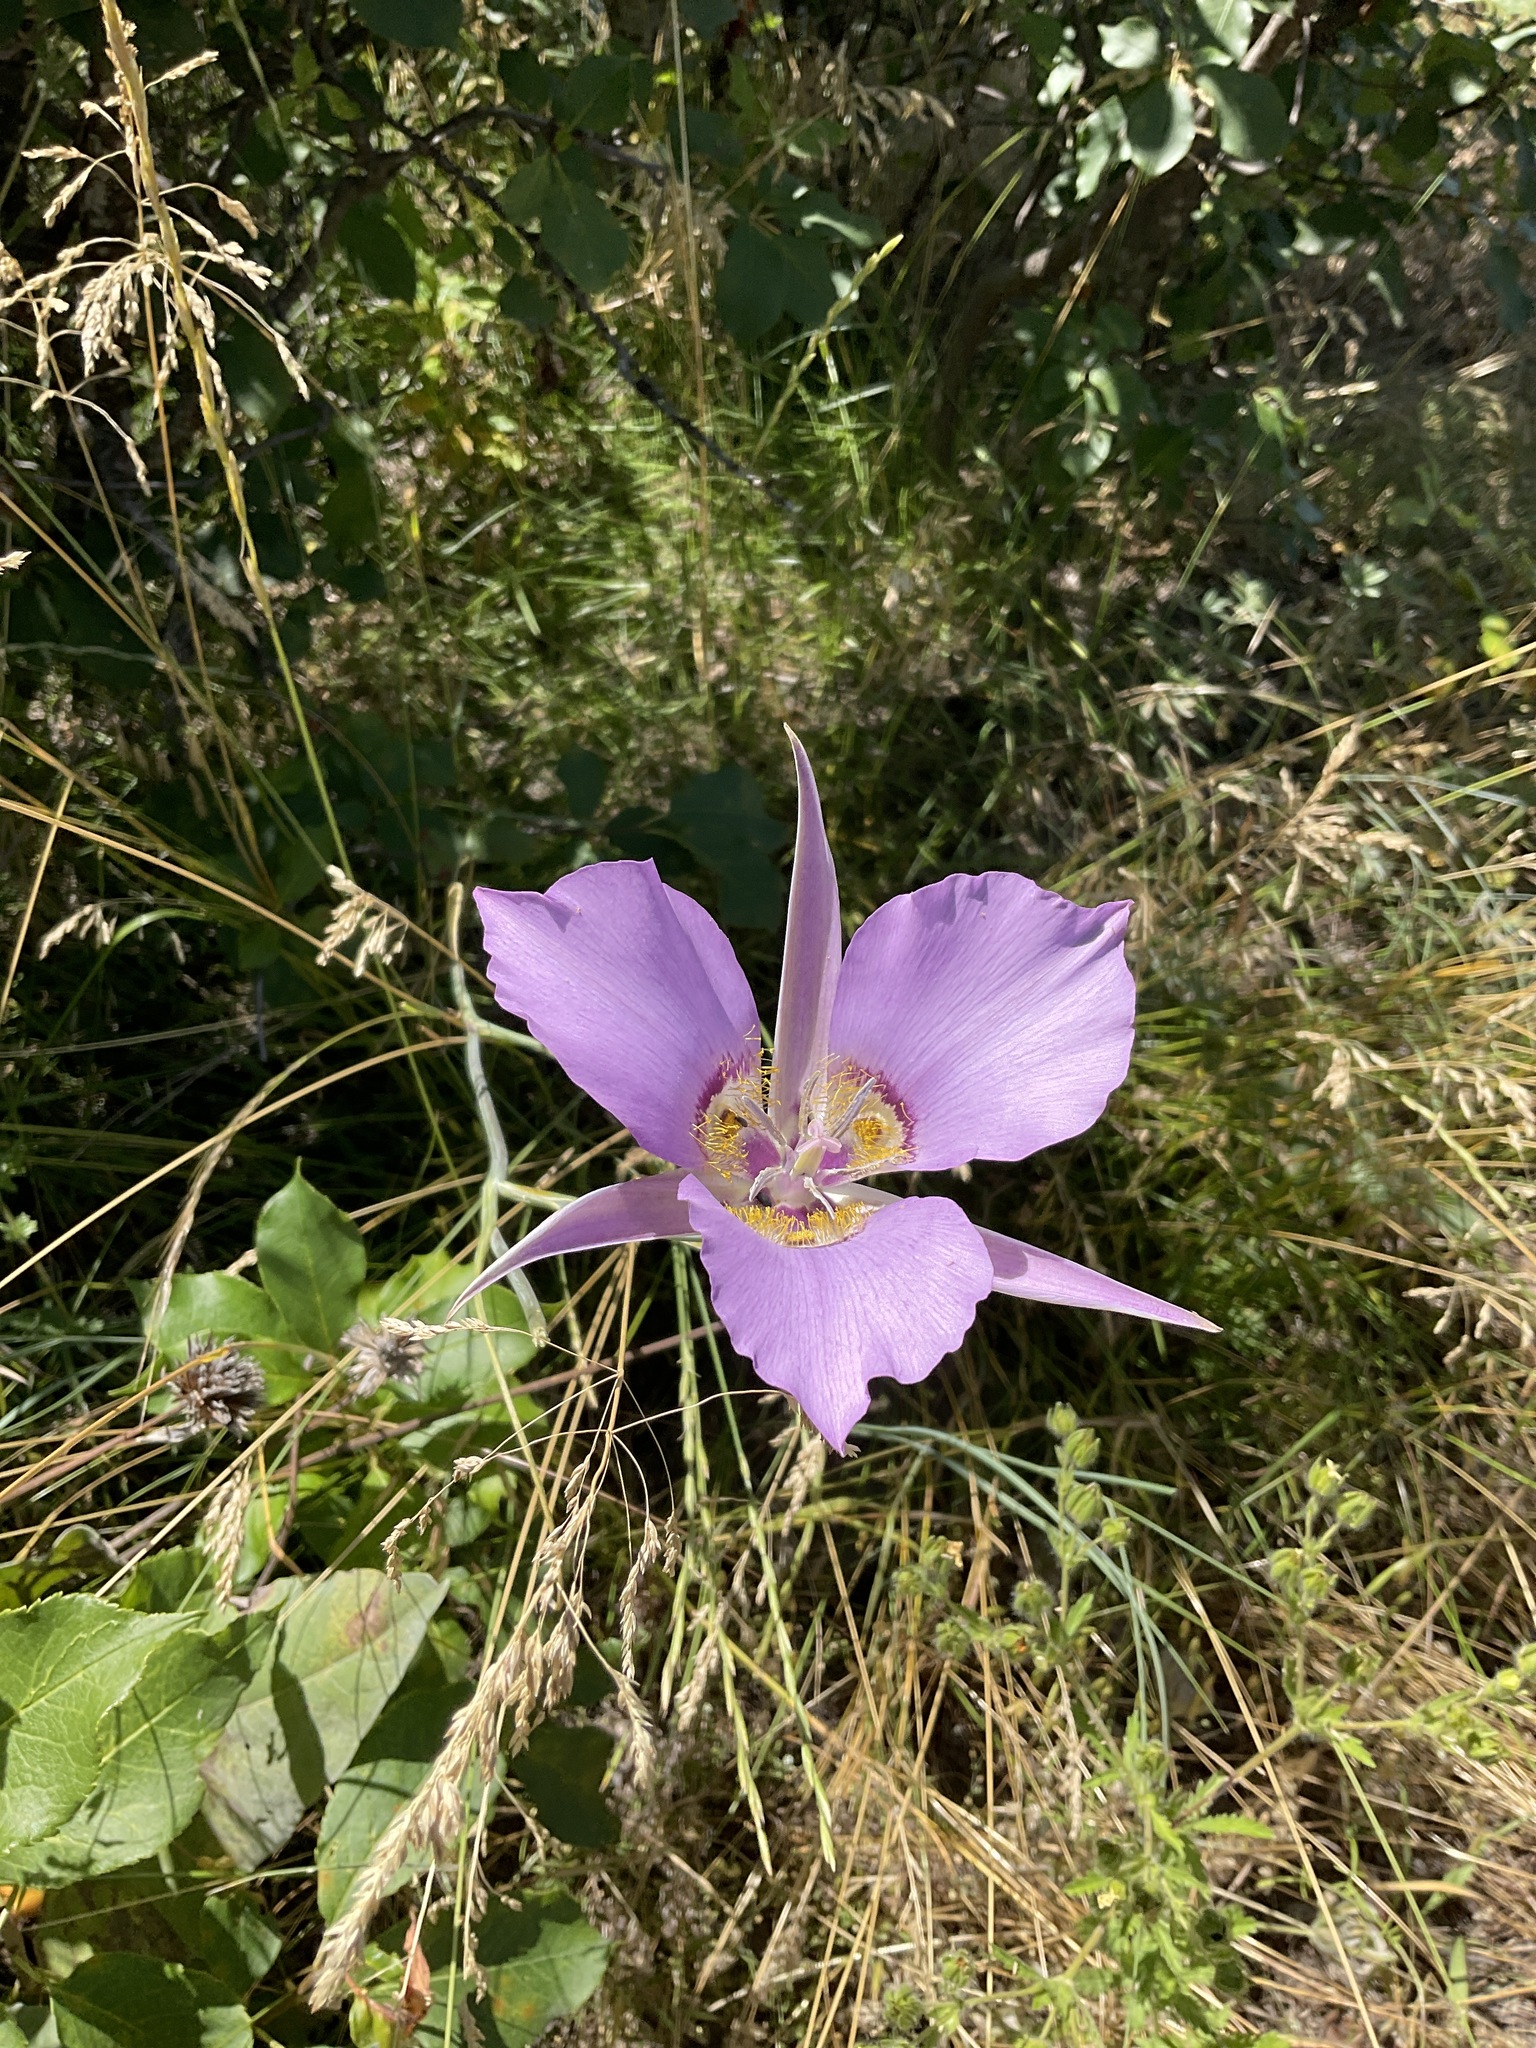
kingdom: Plantae
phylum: Tracheophyta
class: Liliopsida
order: Liliales
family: Liliaceae
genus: Calochortus
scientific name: Calochortus macrocarpus
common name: Green-band mariposa lily
